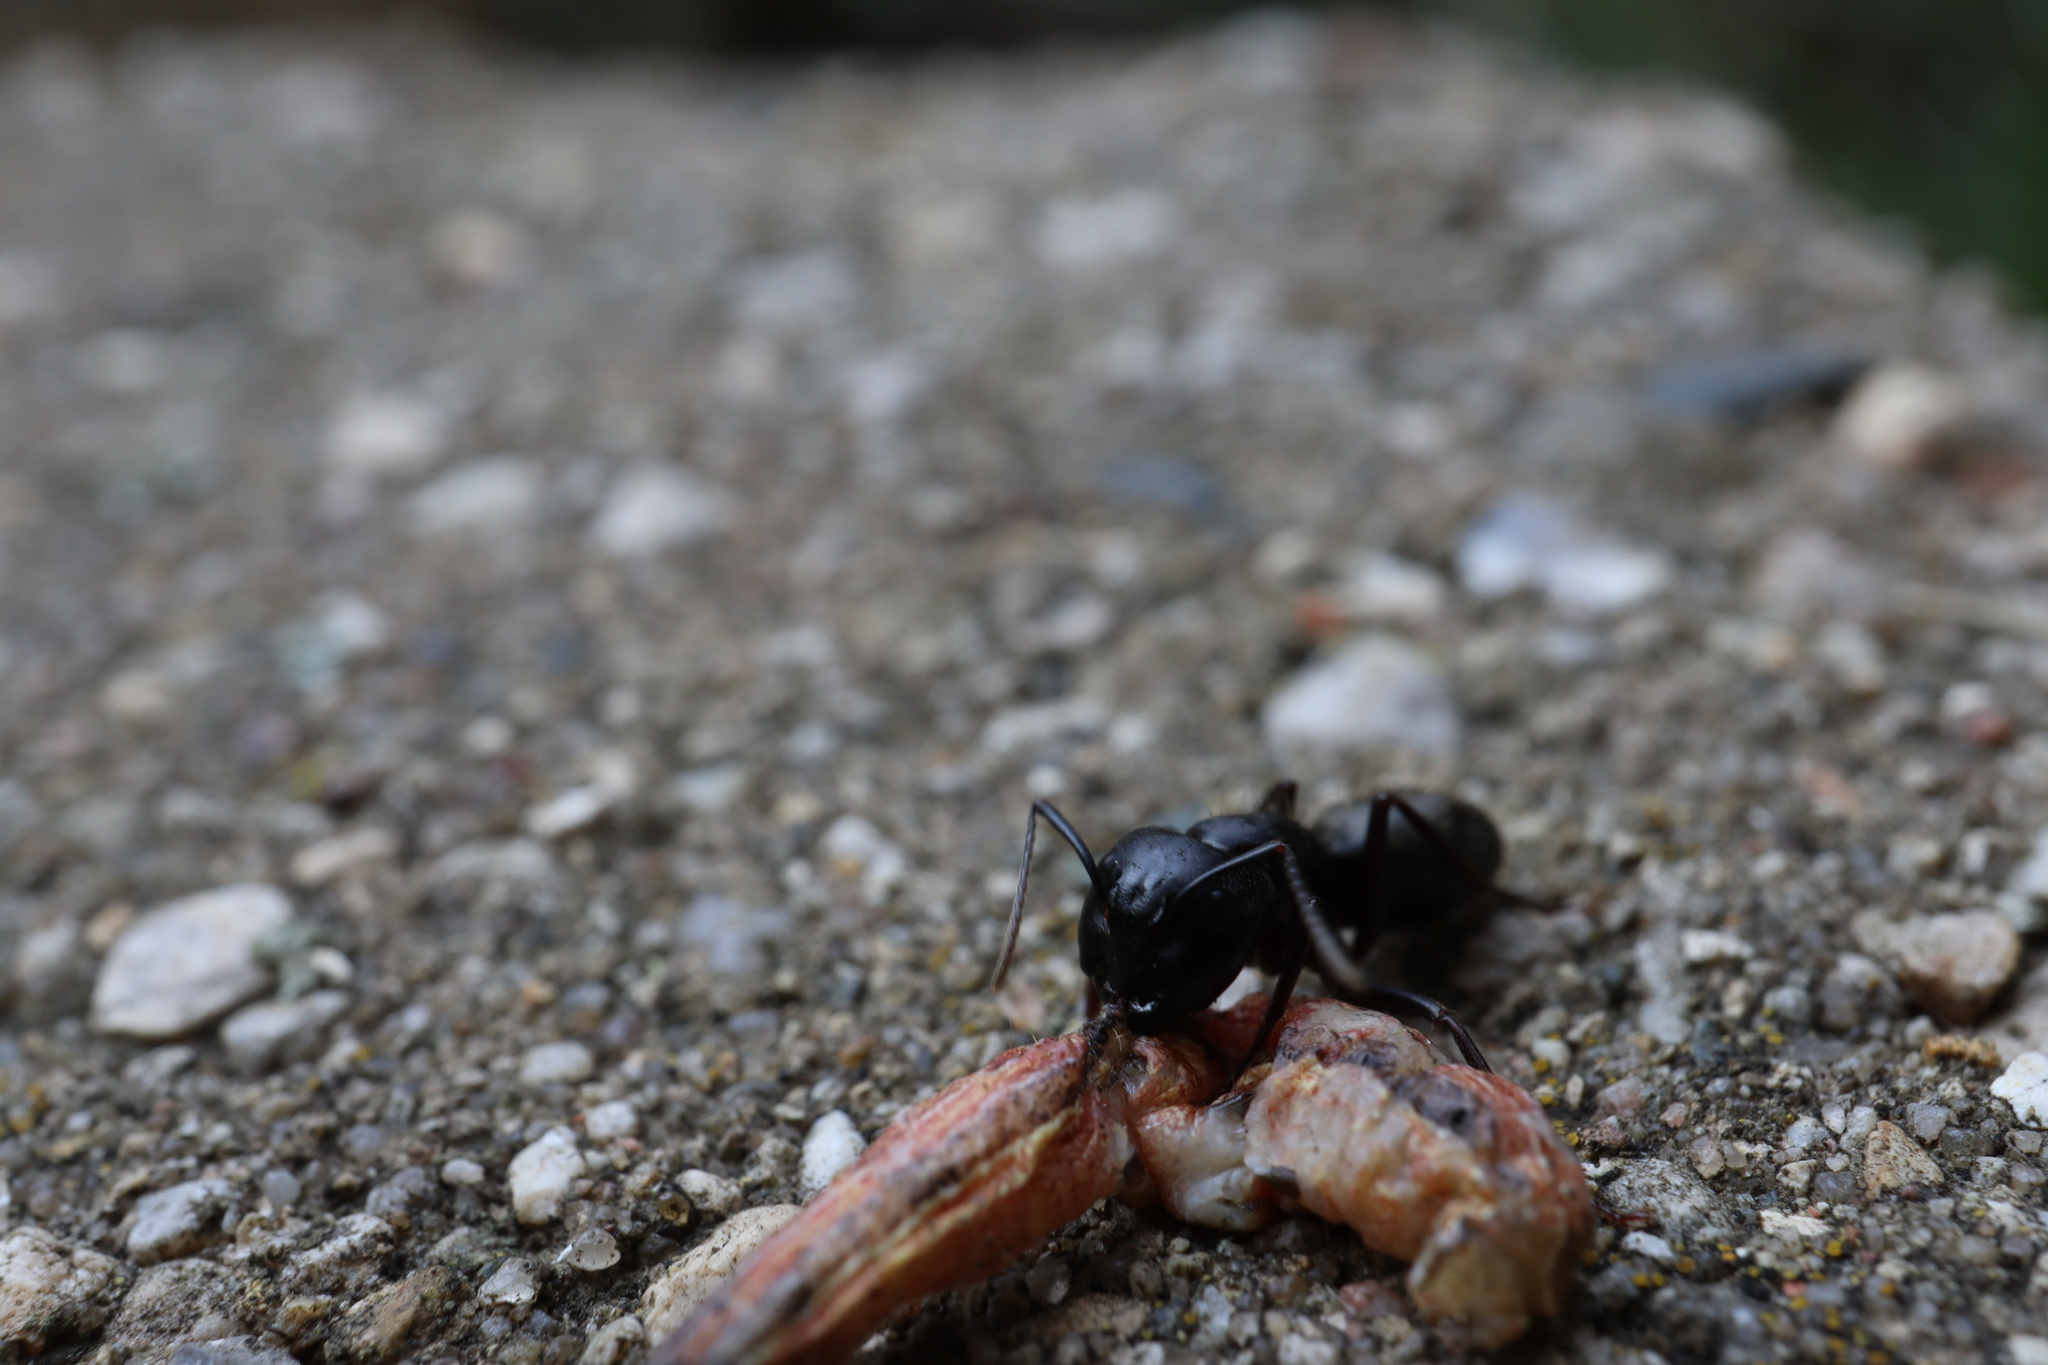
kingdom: Animalia
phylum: Arthropoda
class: Insecta
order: Hymenoptera
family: Formicidae
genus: Camponotus
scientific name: Camponotus pennsylvanicus
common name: Black carpenter ant
